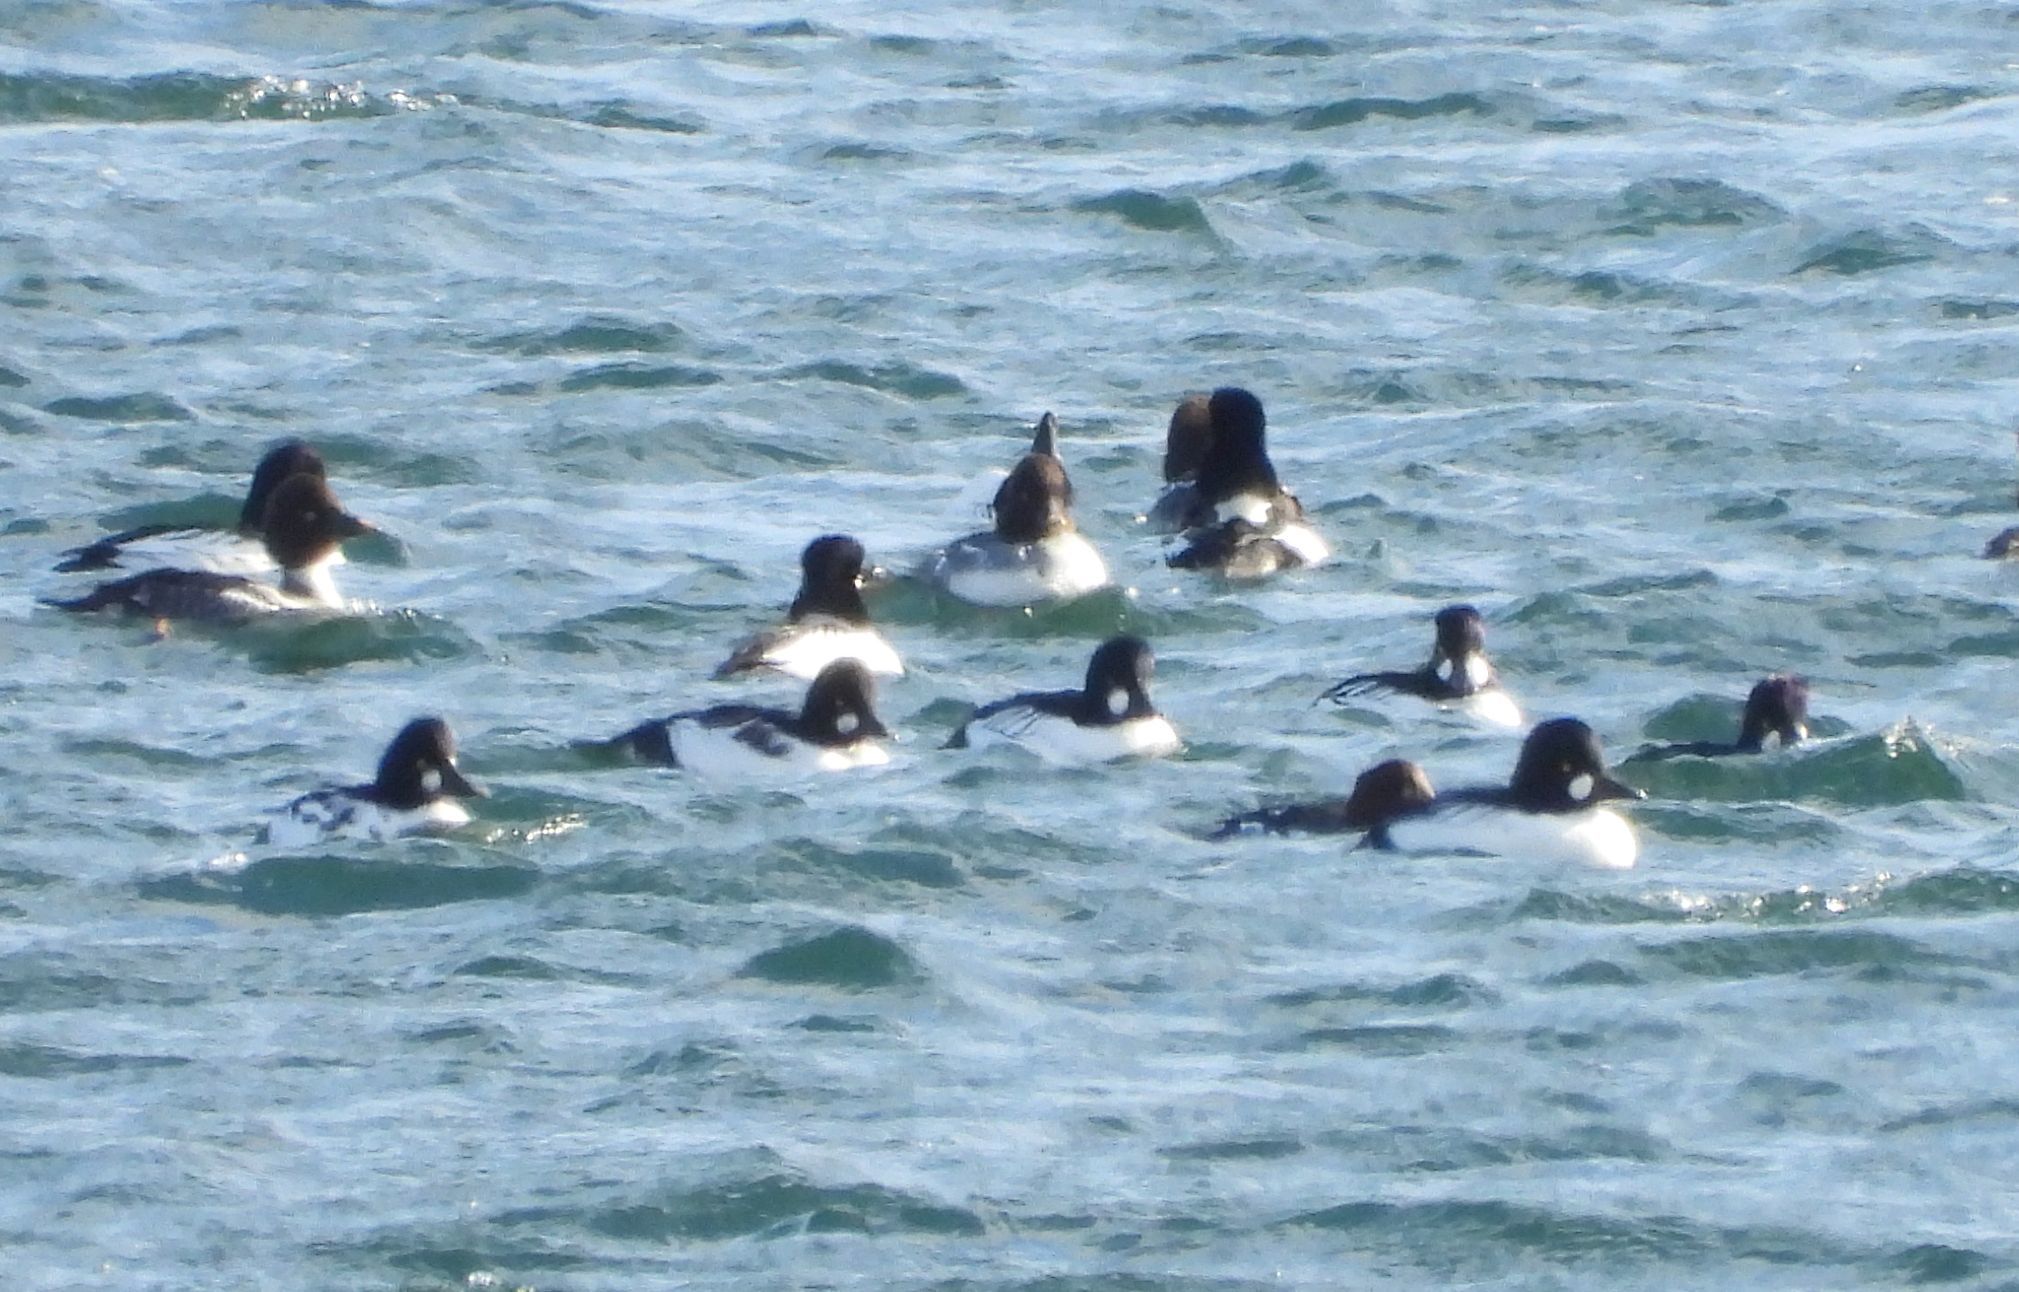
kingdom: Animalia
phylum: Chordata
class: Aves
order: Anseriformes
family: Anatidae
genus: Bucephala
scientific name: Bucephala clangula
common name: Common goldeneye
